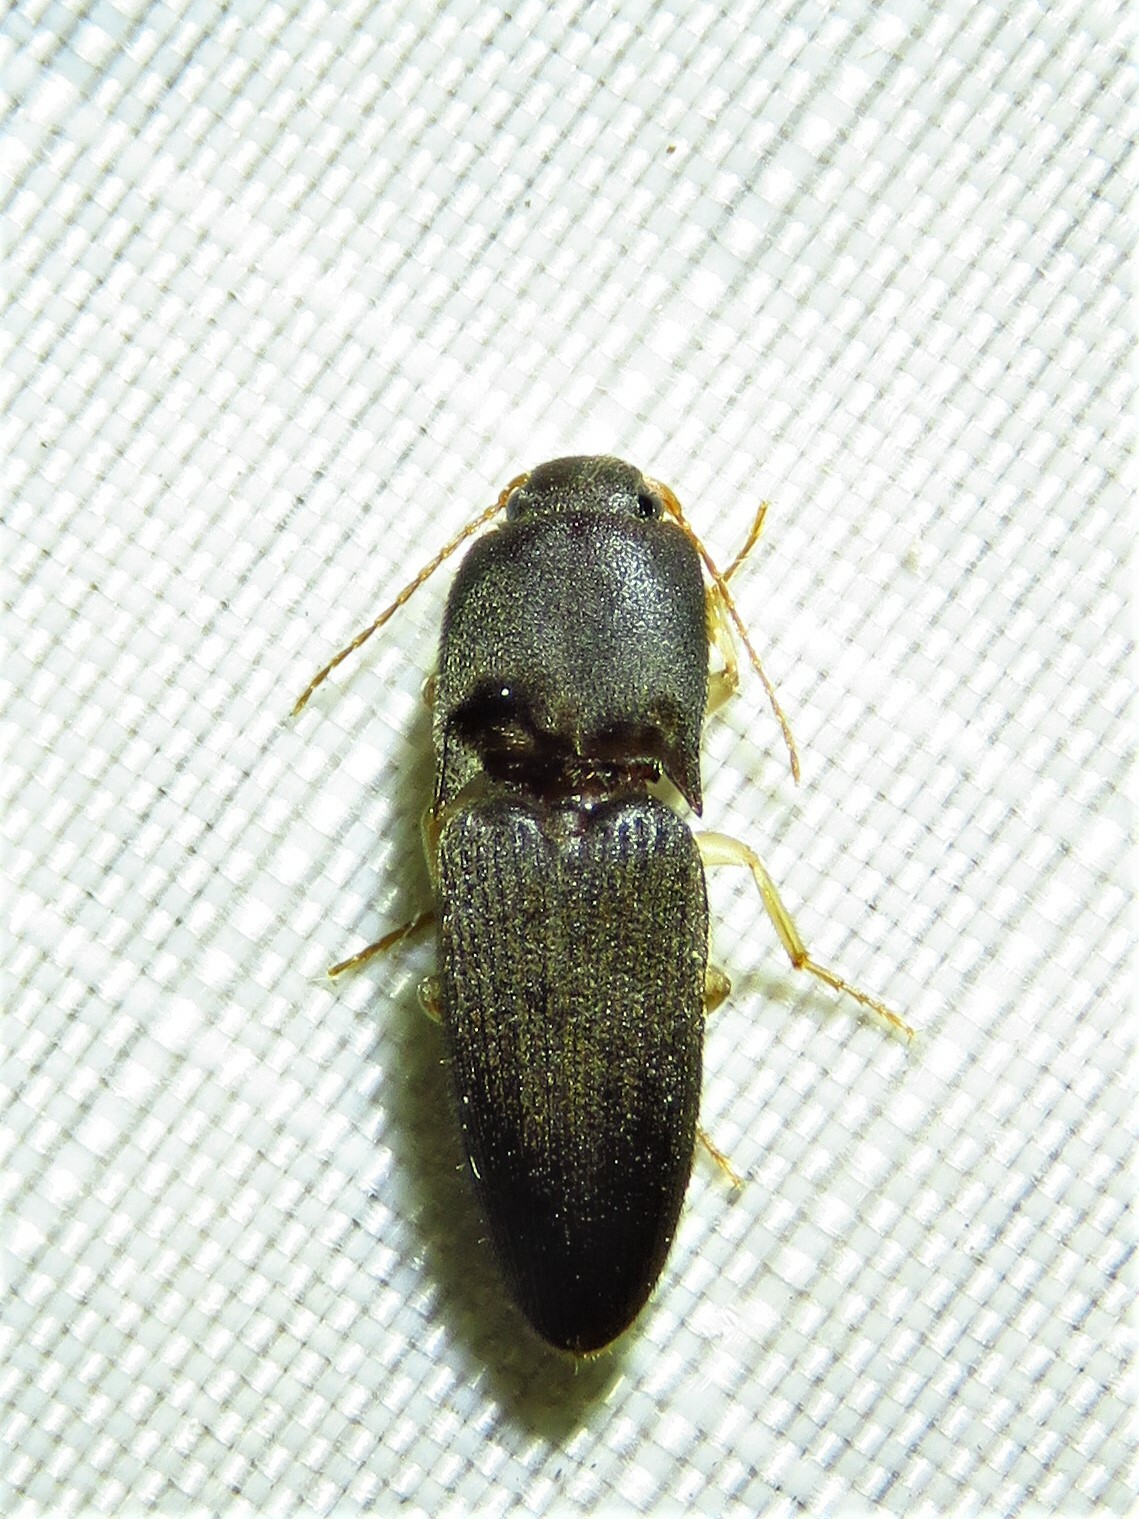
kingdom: Animalia
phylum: Arthropoda
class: Insecta
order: Coleoptera
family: Elateridae
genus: Heteroderes
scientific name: Heteroderes amplicollis
